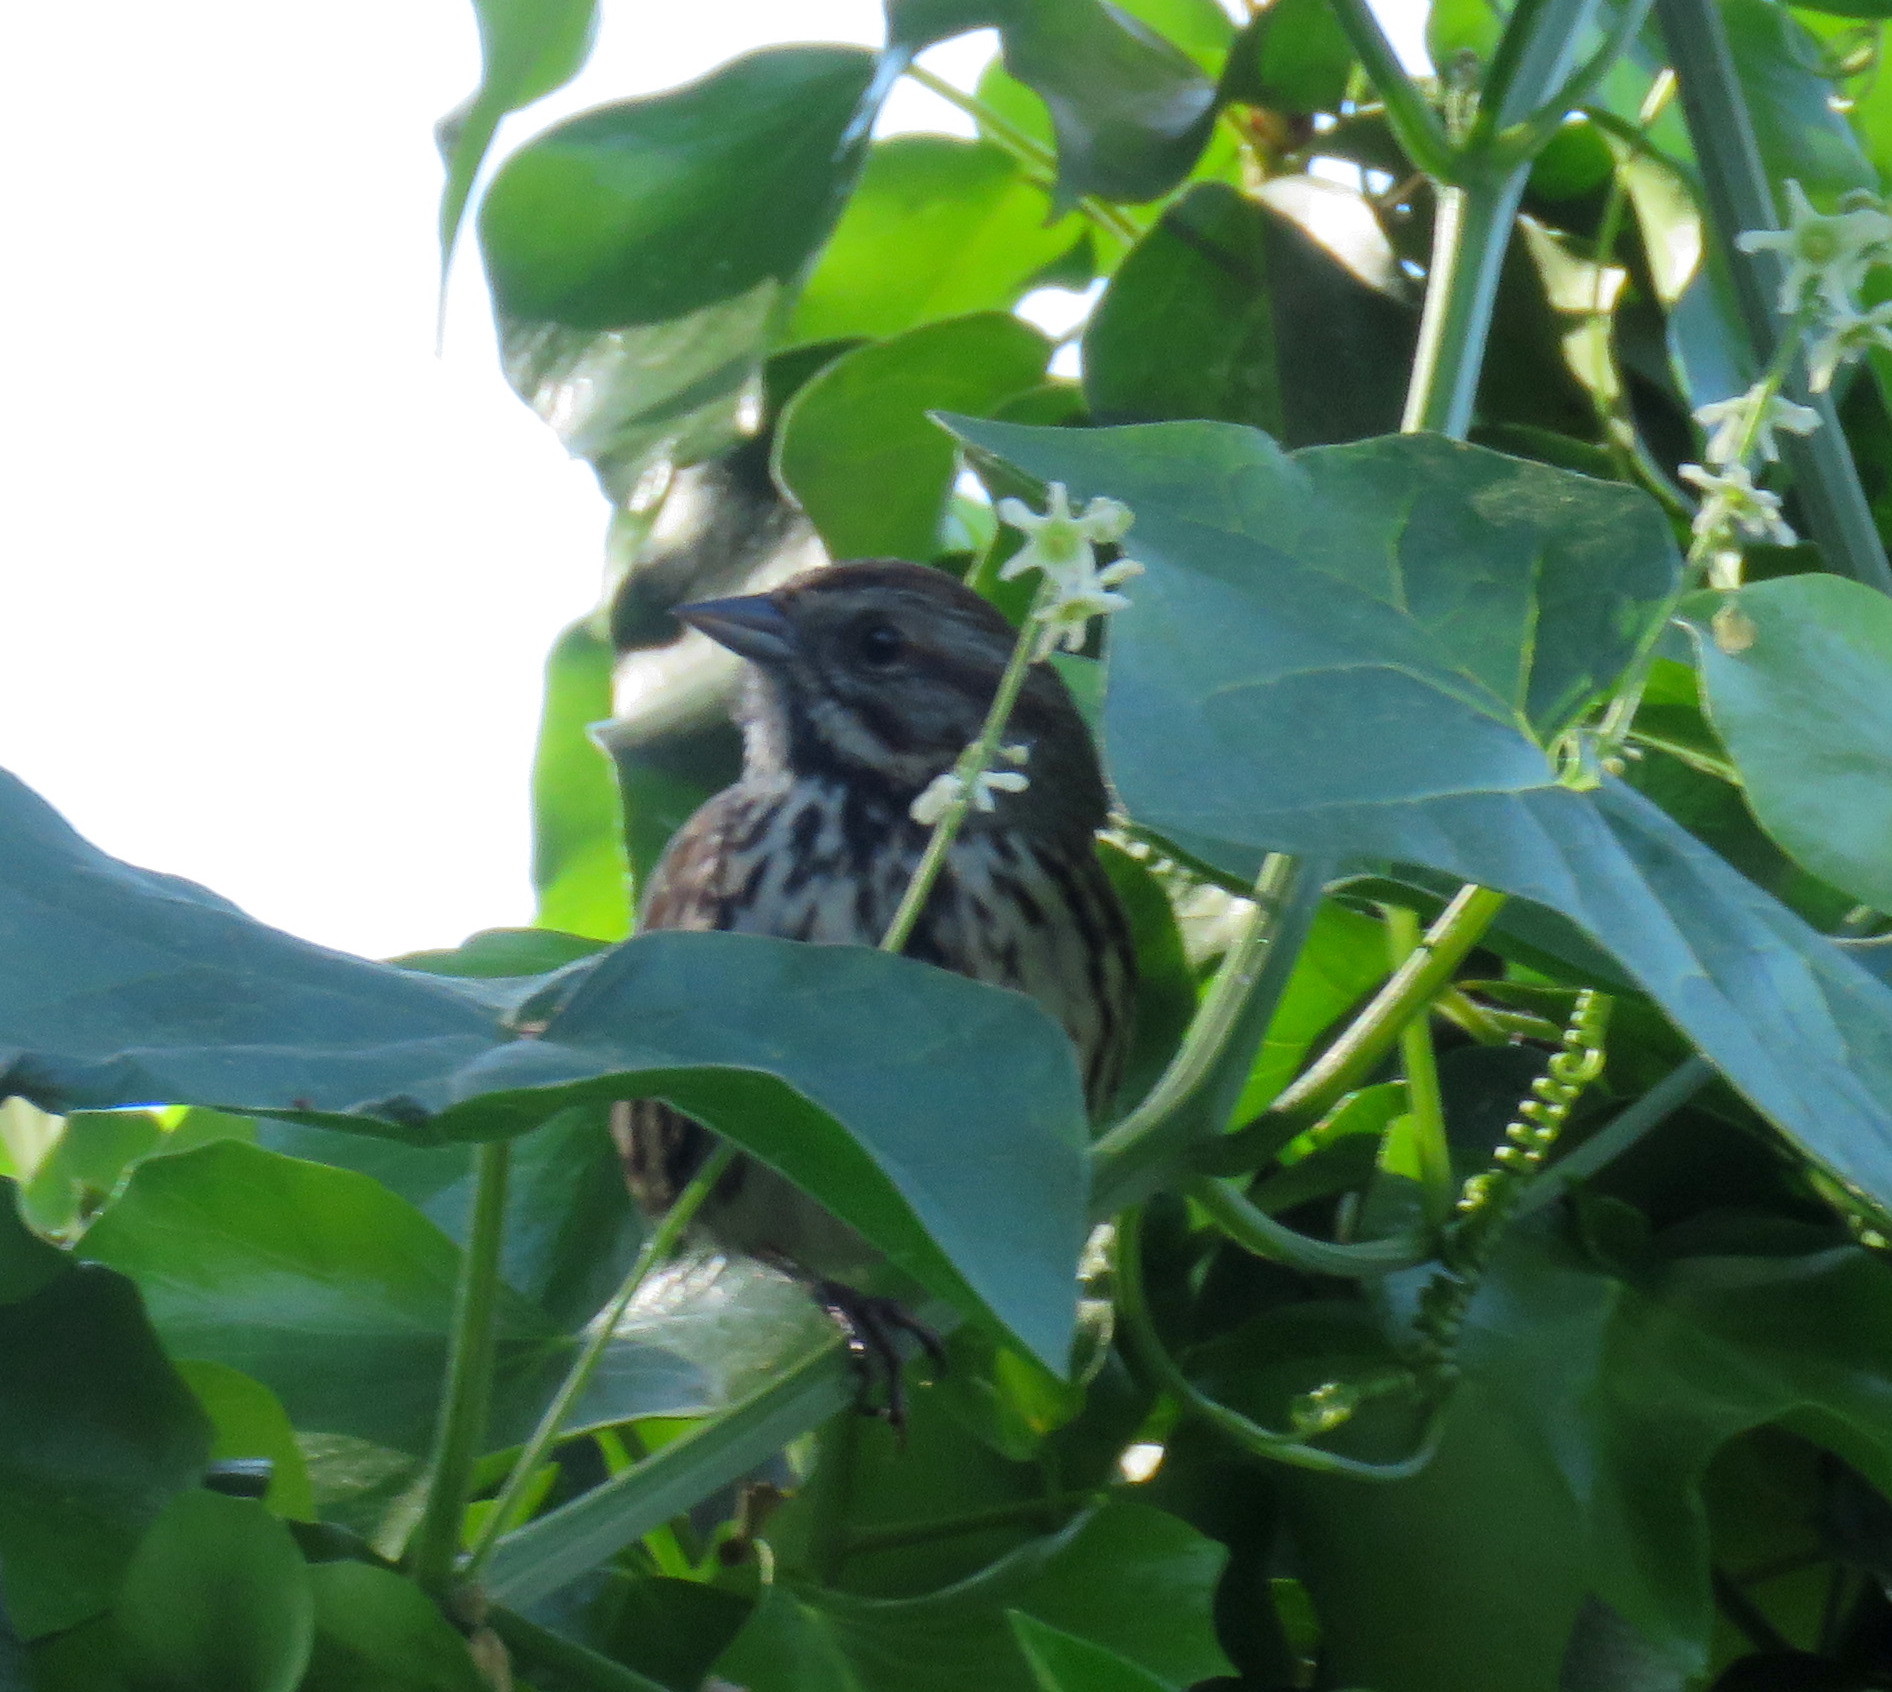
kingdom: Animalia
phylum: Chordata
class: Aves
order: Passeriformes
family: Passerellidae
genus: Melospiza
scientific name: Melospiza melodia
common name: Song sparrow
